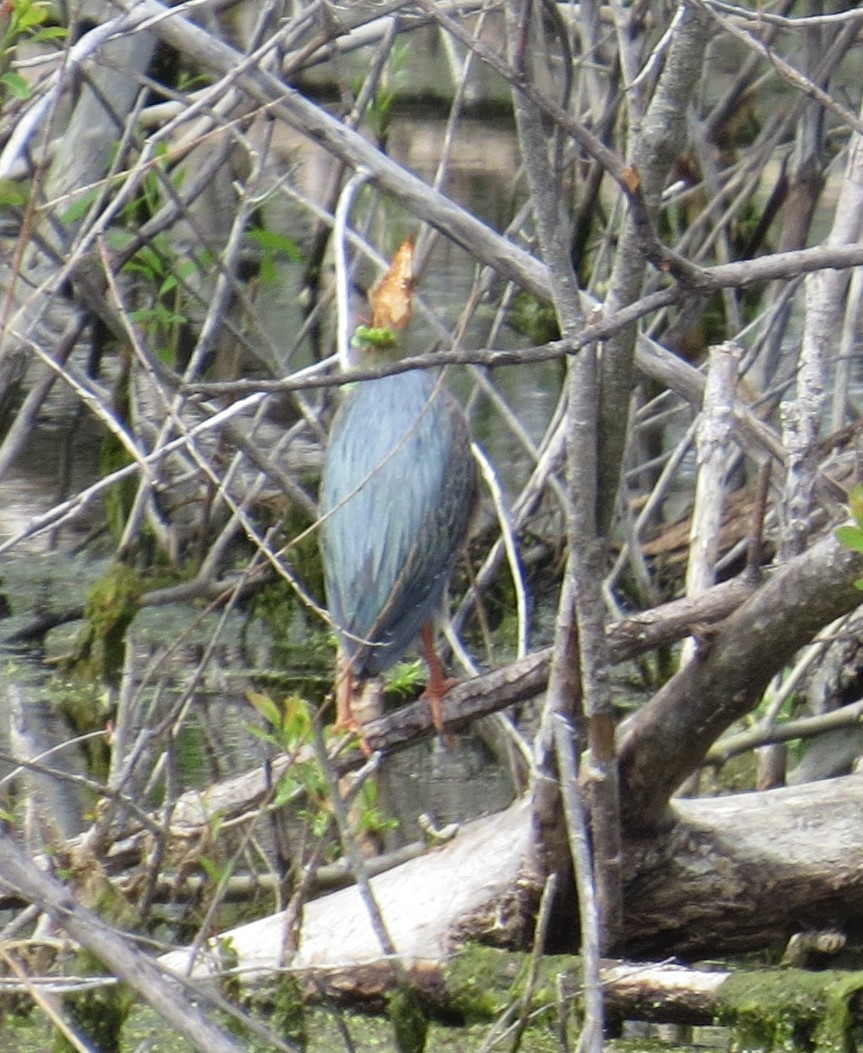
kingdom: Animalia
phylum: Chordata
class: Aves
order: Pelecaniformes
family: Ardeidae
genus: Butorides
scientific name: Butorides virescens
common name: Green heron
